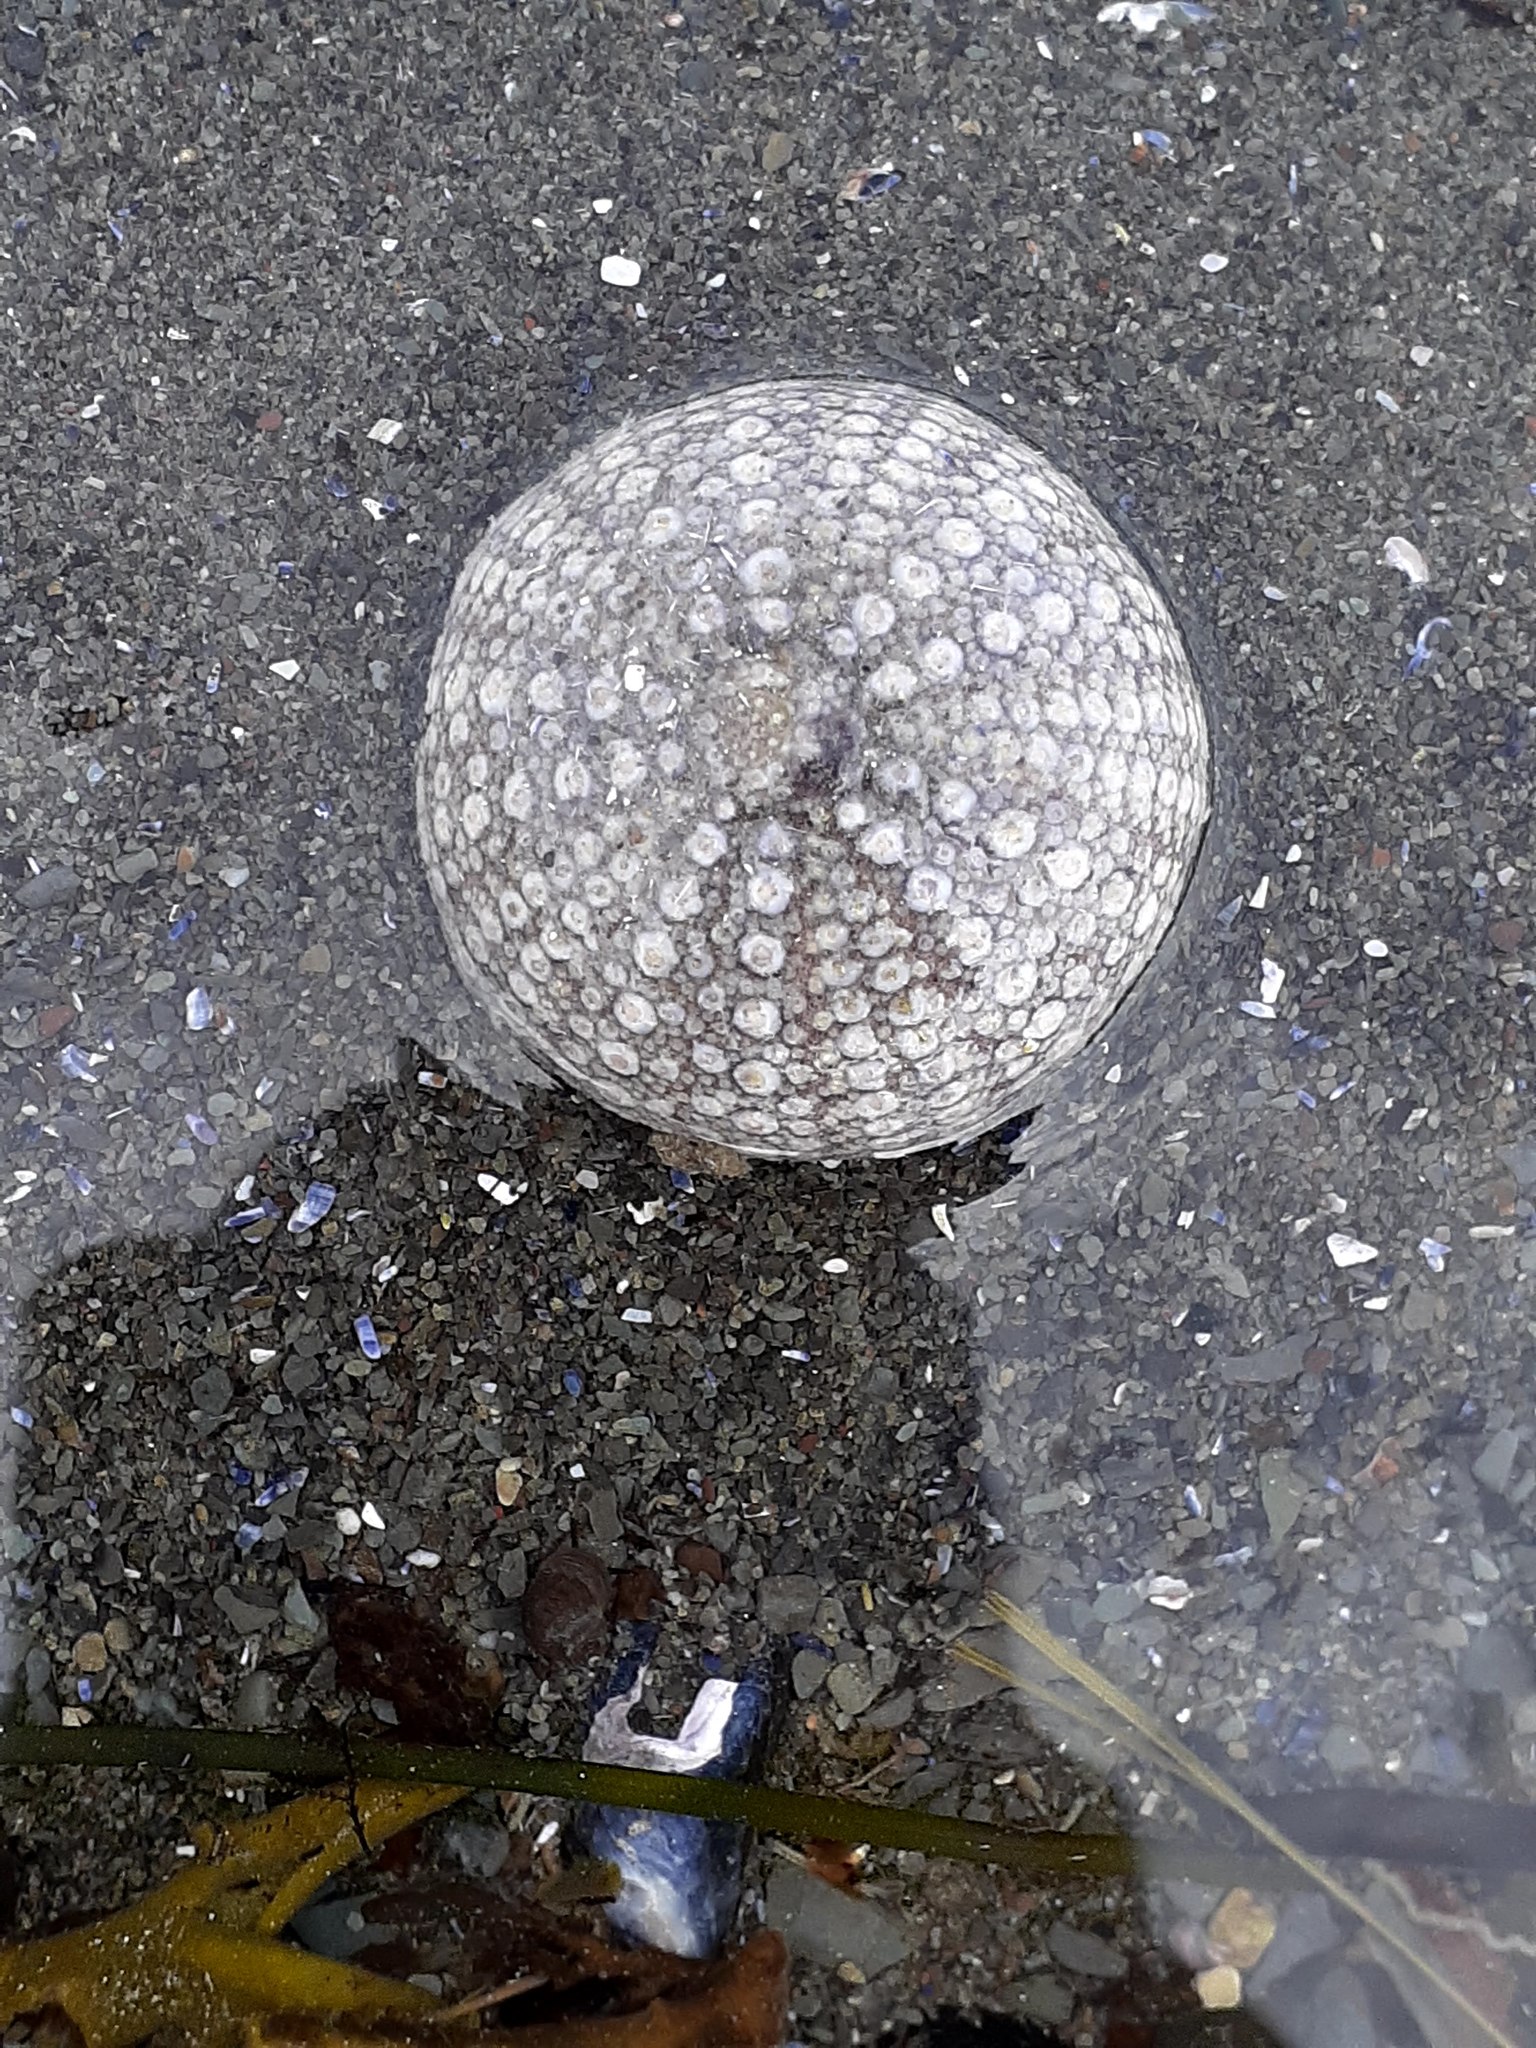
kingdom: Animalia
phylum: Echinodermata
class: Echinoidea
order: Camarodonta
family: Strongylocentrotidae
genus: Strongylocentrotus
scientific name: Strongylocentrotus droebachiensis
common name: Northern sea urchin
